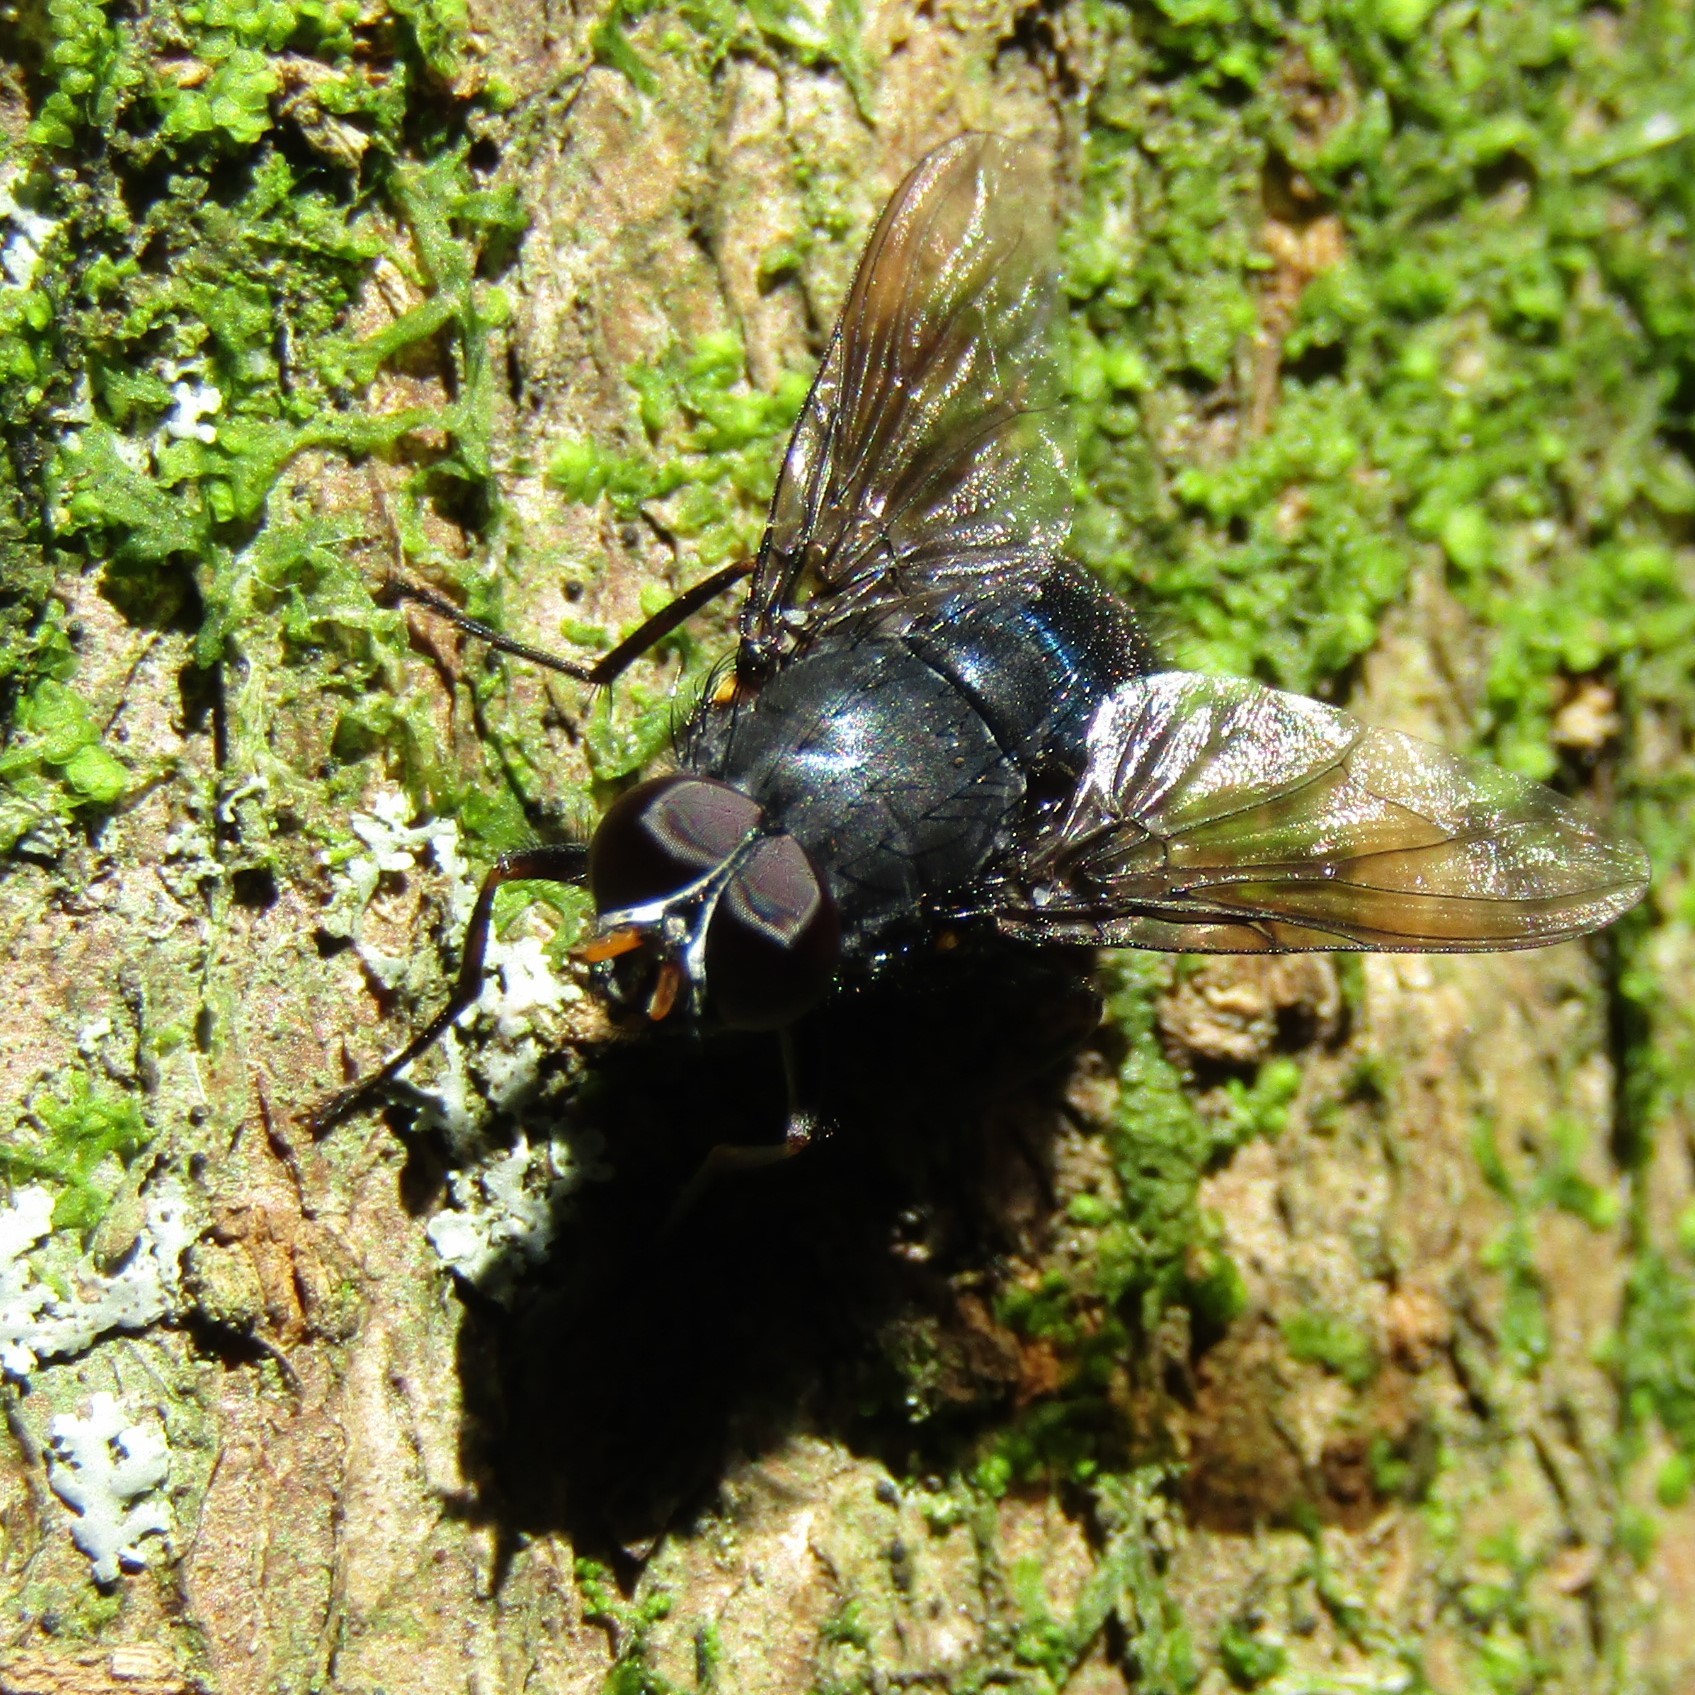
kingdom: Animalia
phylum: Arthropoda
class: Insecta
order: Diptera
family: Muscidae
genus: Calliphoroides
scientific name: Calliphoroides antennatis
